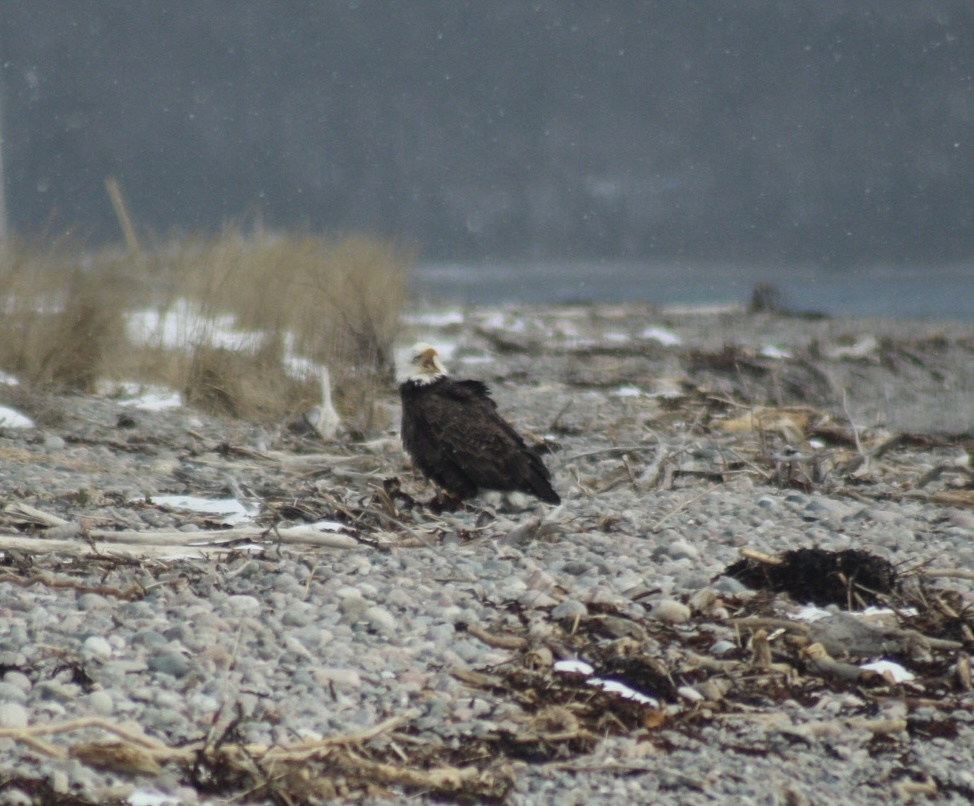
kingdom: Animalia
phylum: Chordata
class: Aves
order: Accipitriformes
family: Accipitridae
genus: Haliaeetus
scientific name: Haliaeetus leucocephalus
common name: Bald eagle
